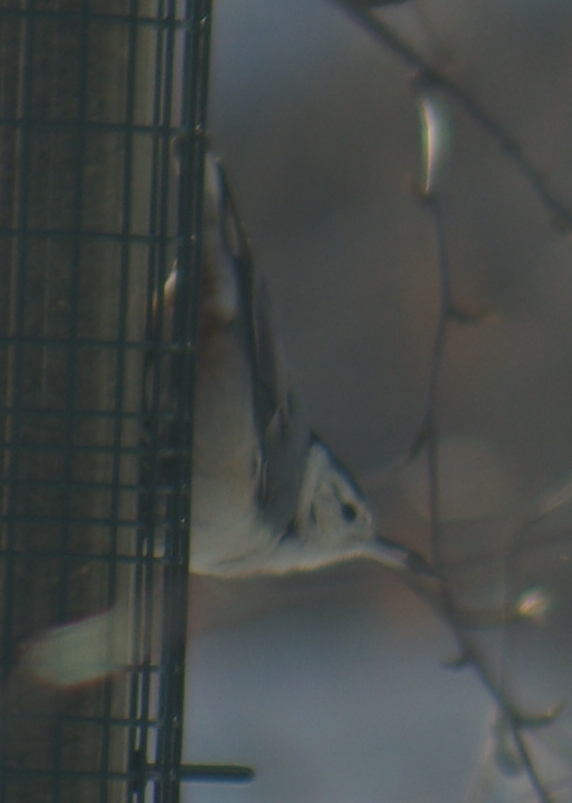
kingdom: Animalia
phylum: Chordata
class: Aves
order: Passeriformes
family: Sittidae
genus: Sitta
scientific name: Sitta carolinensis
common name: White-breasted nuthatch
